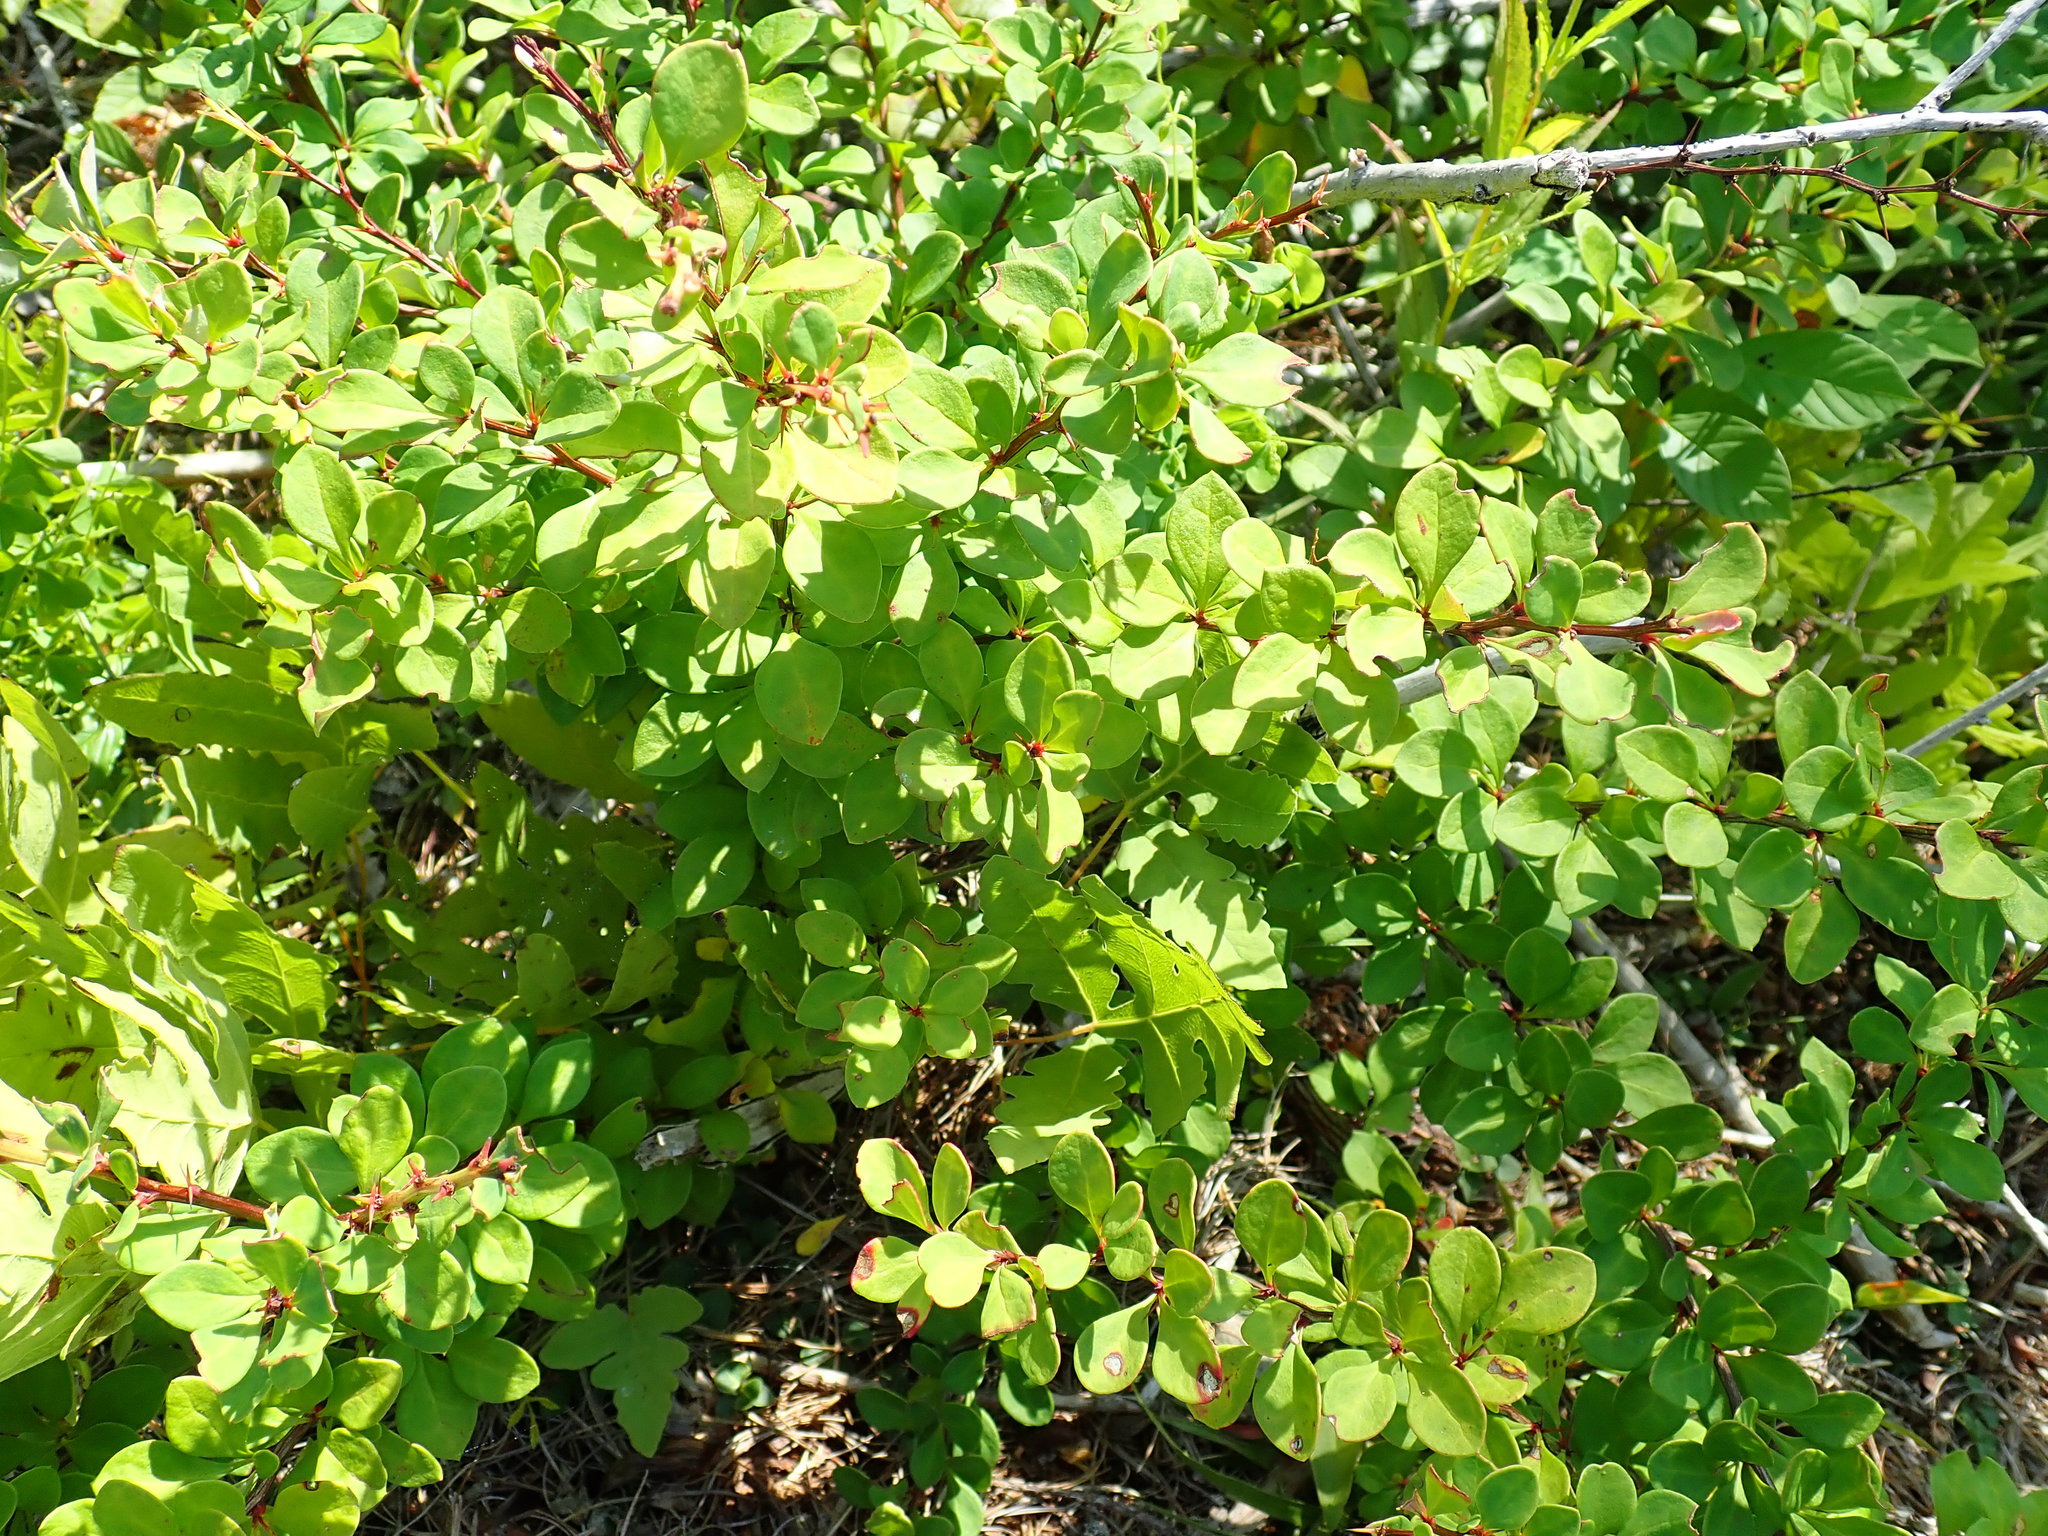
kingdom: Plantae
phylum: Tracheophyta
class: Magnoliopsida
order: Ranunculales
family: Berberidaceae
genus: Berberis
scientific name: Berberis thunbergii
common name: Japanese barberry
